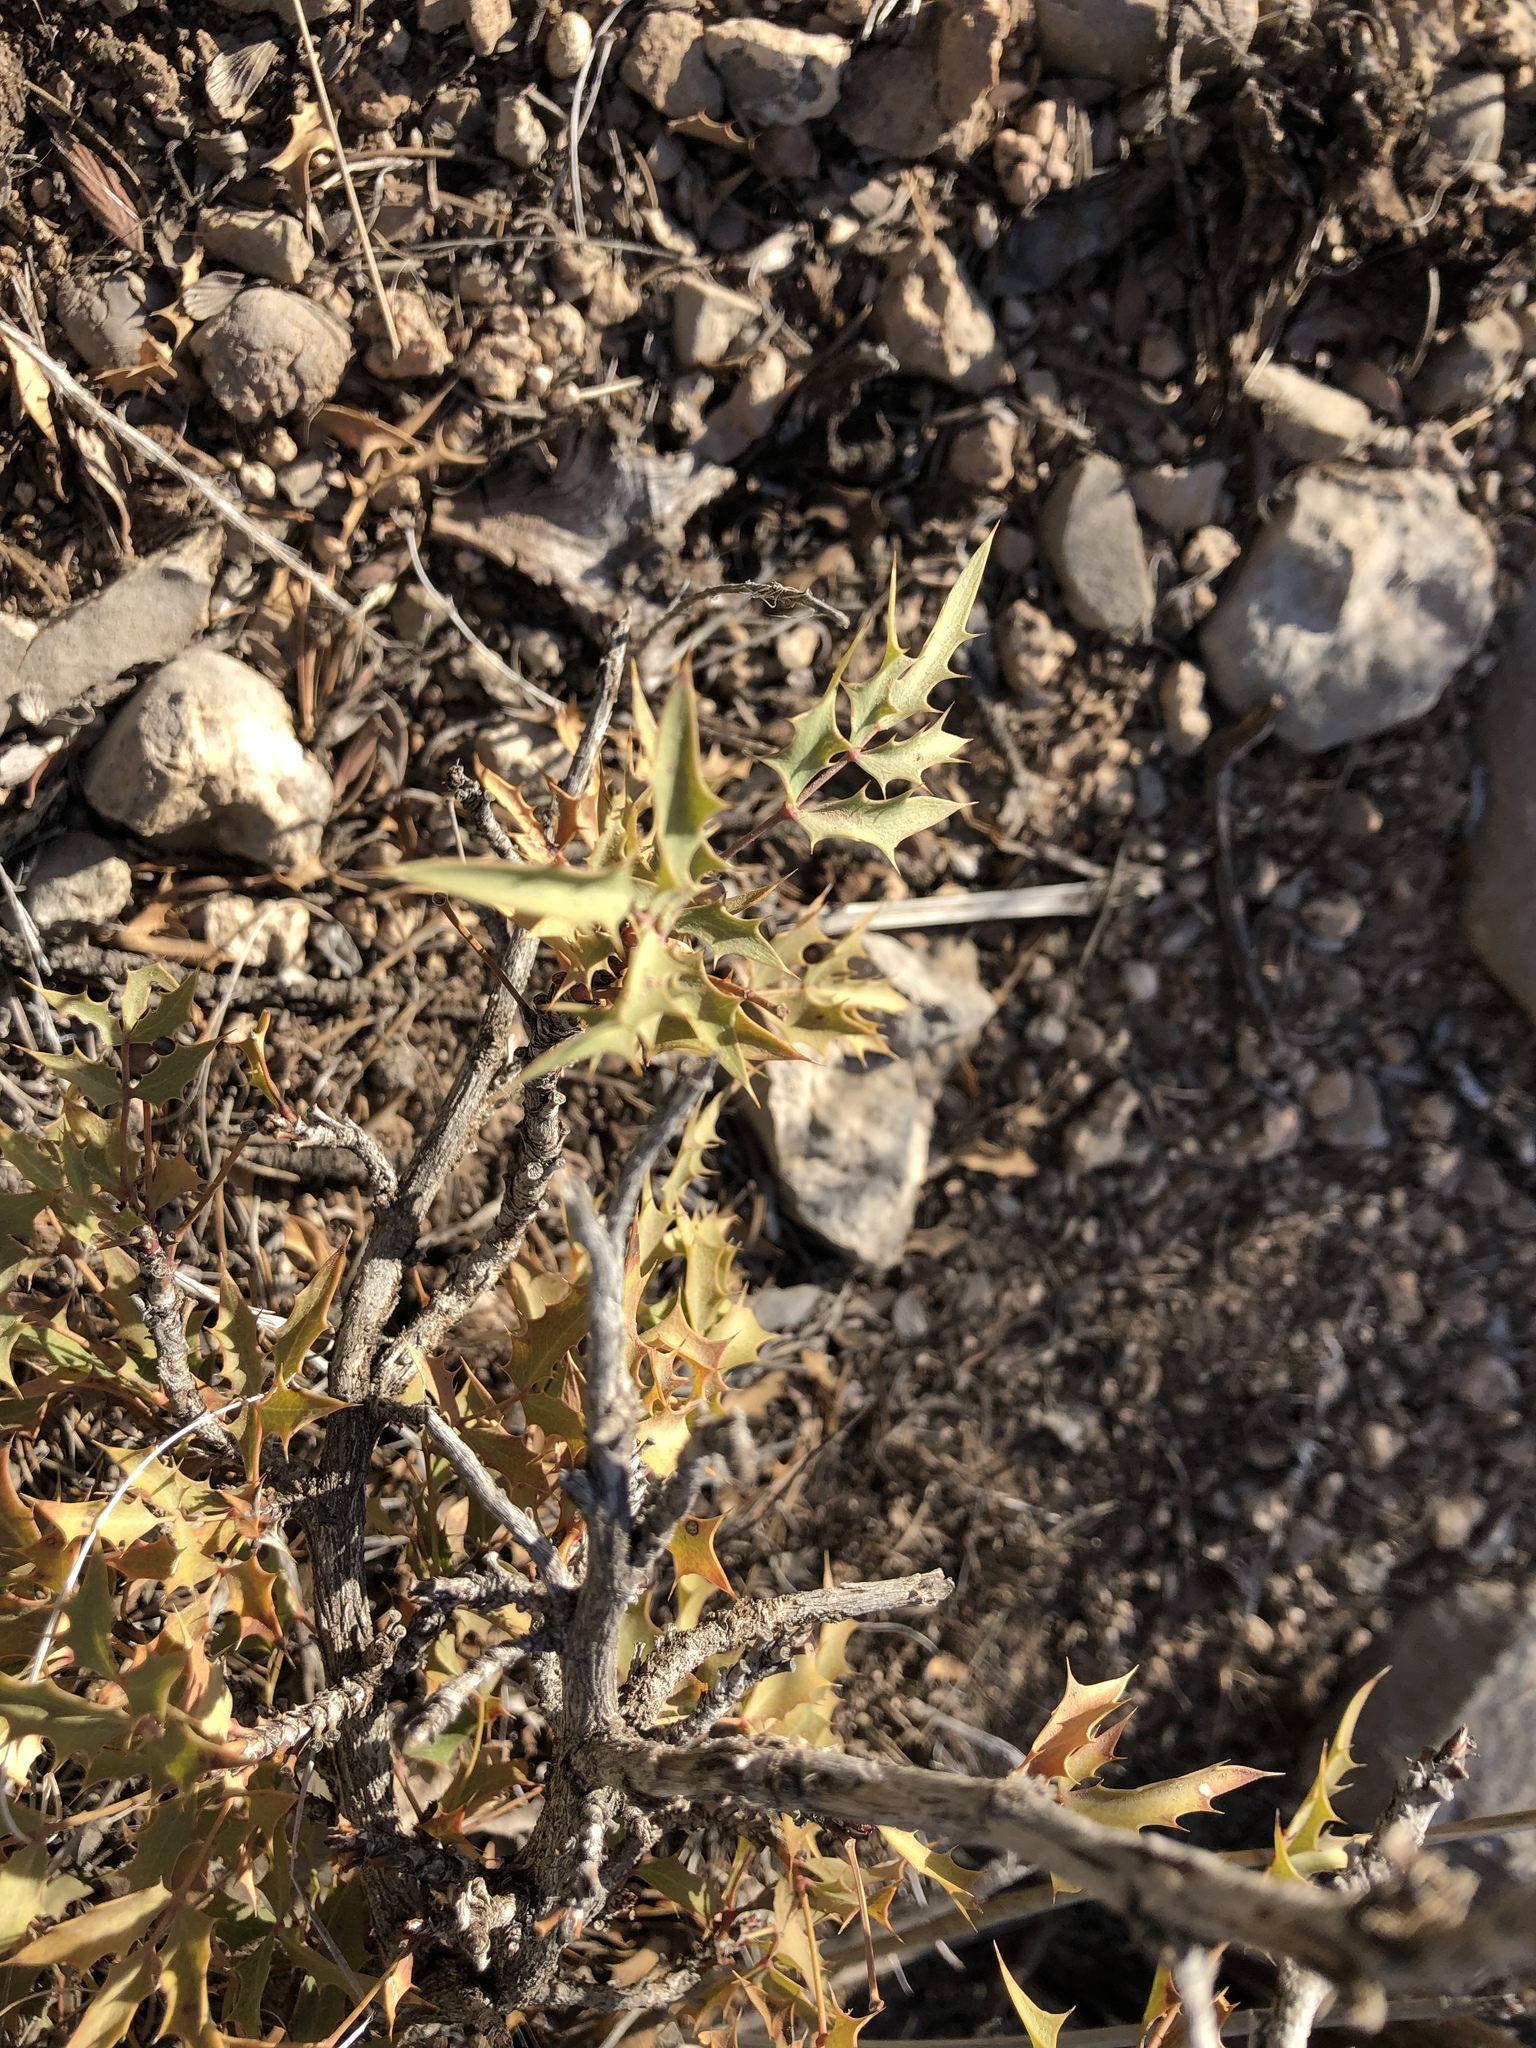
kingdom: Plantae
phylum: Tracheophyta
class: Magnoliopsida
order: Ranunculales
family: Berberidaceae
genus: Alloberberis
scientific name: Alloberberis haematocarpa
